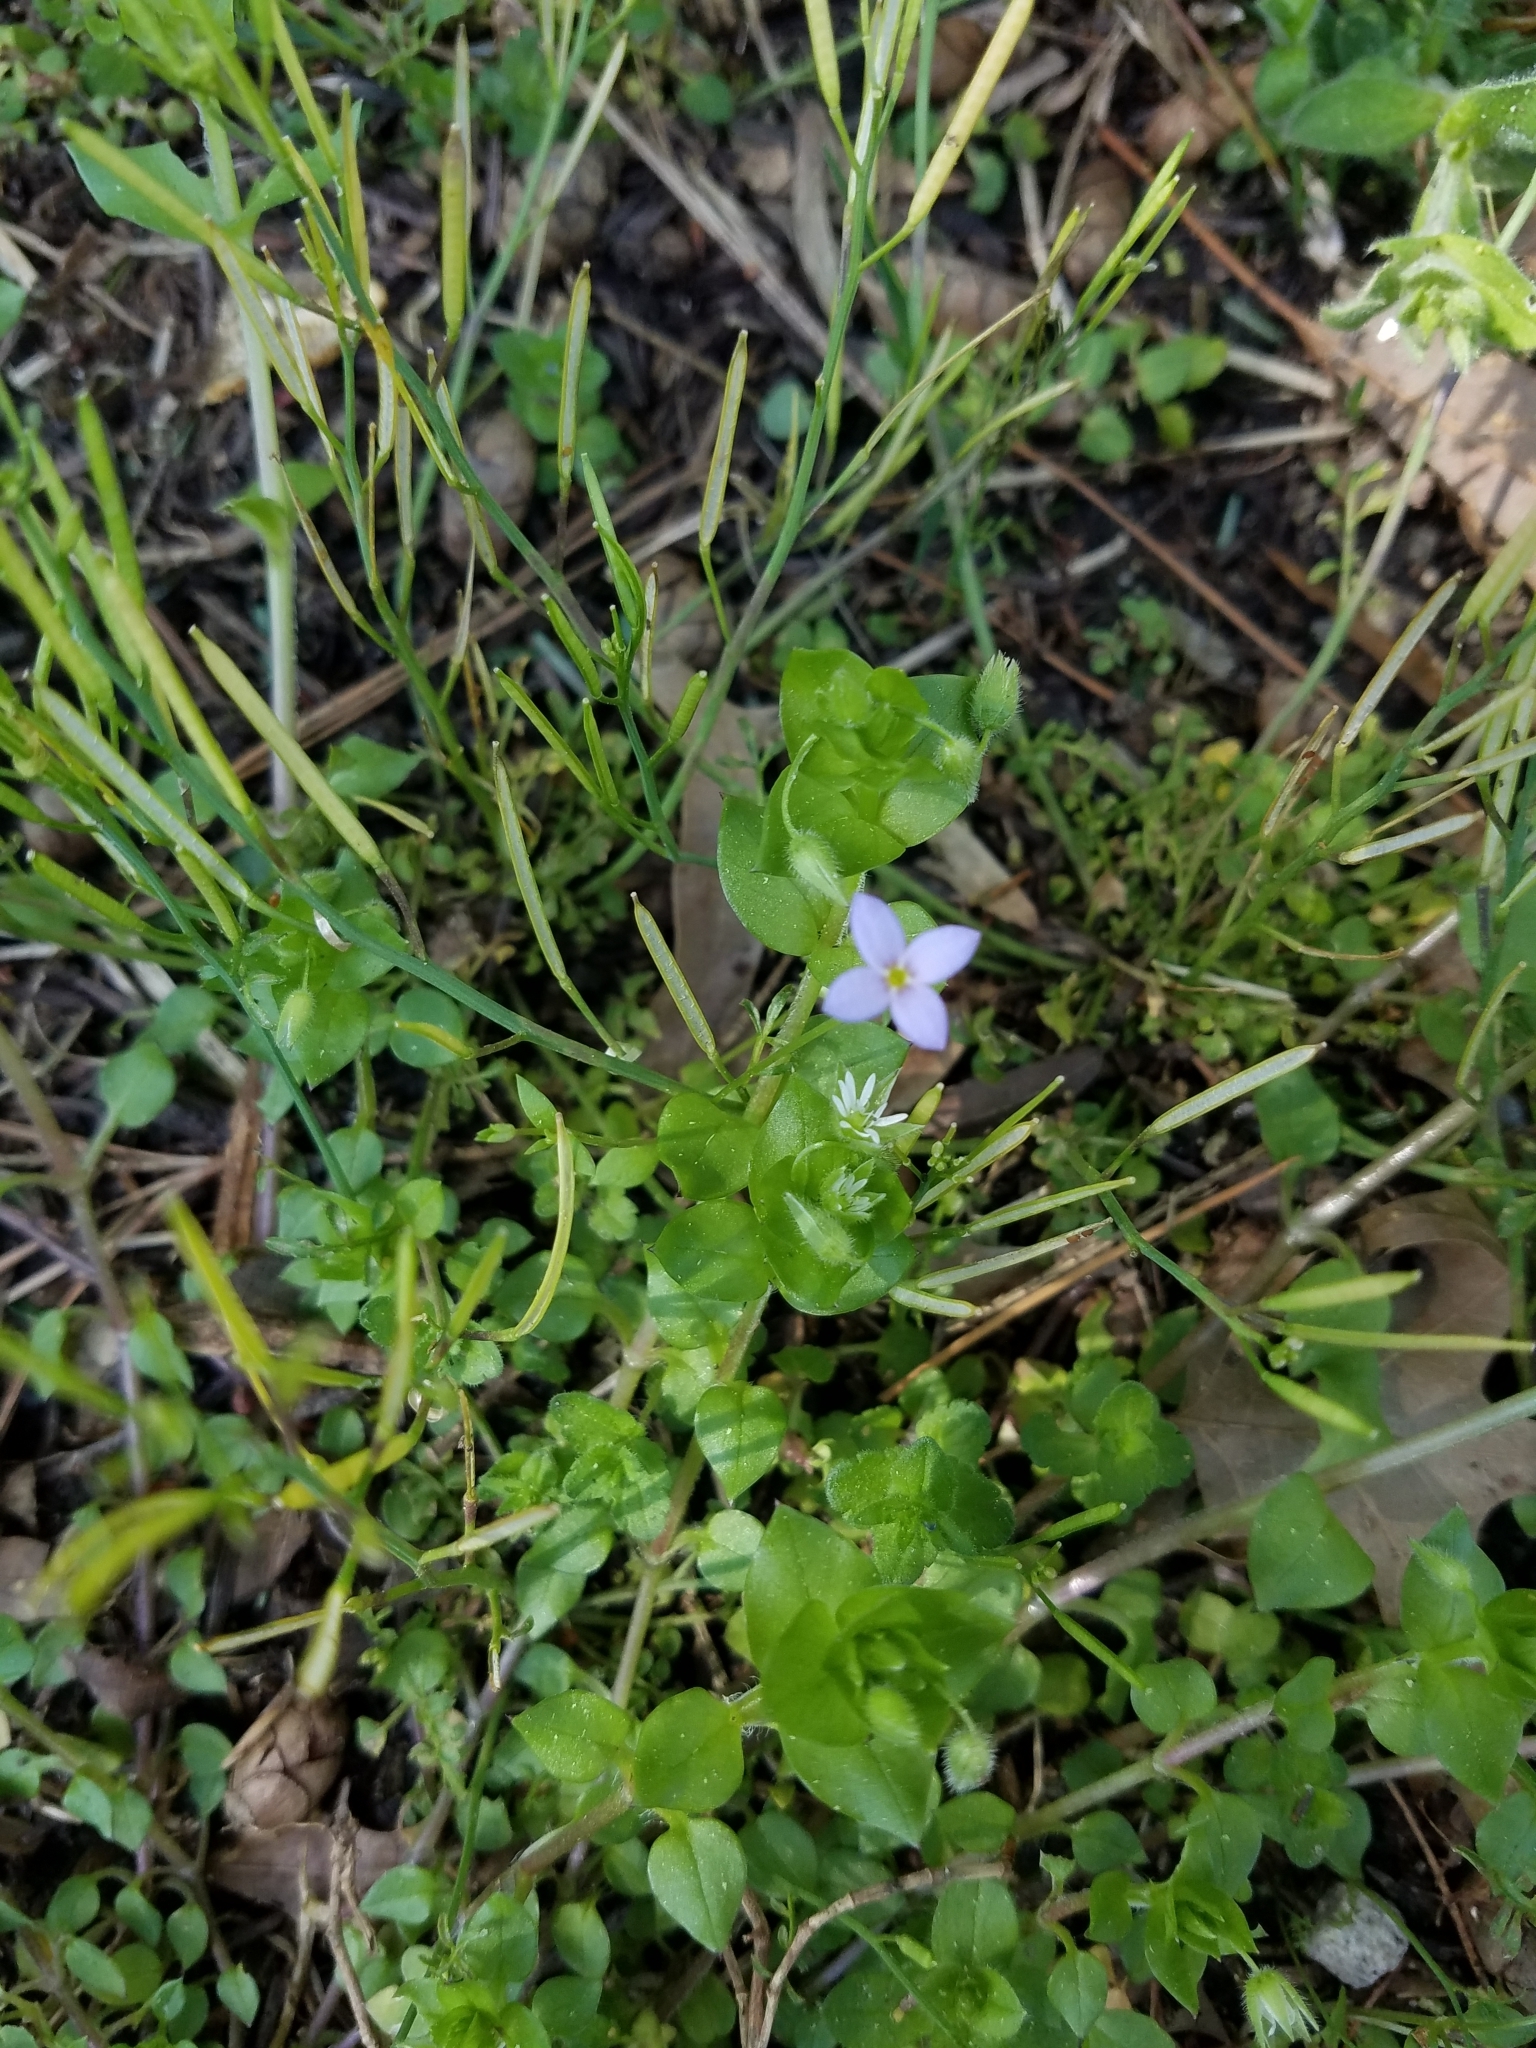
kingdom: Plantae
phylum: Tracheophyta
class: Magnoliopsida
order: Gentianales
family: Rubiaceae
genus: Houstonia
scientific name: Houstonia pusilla
